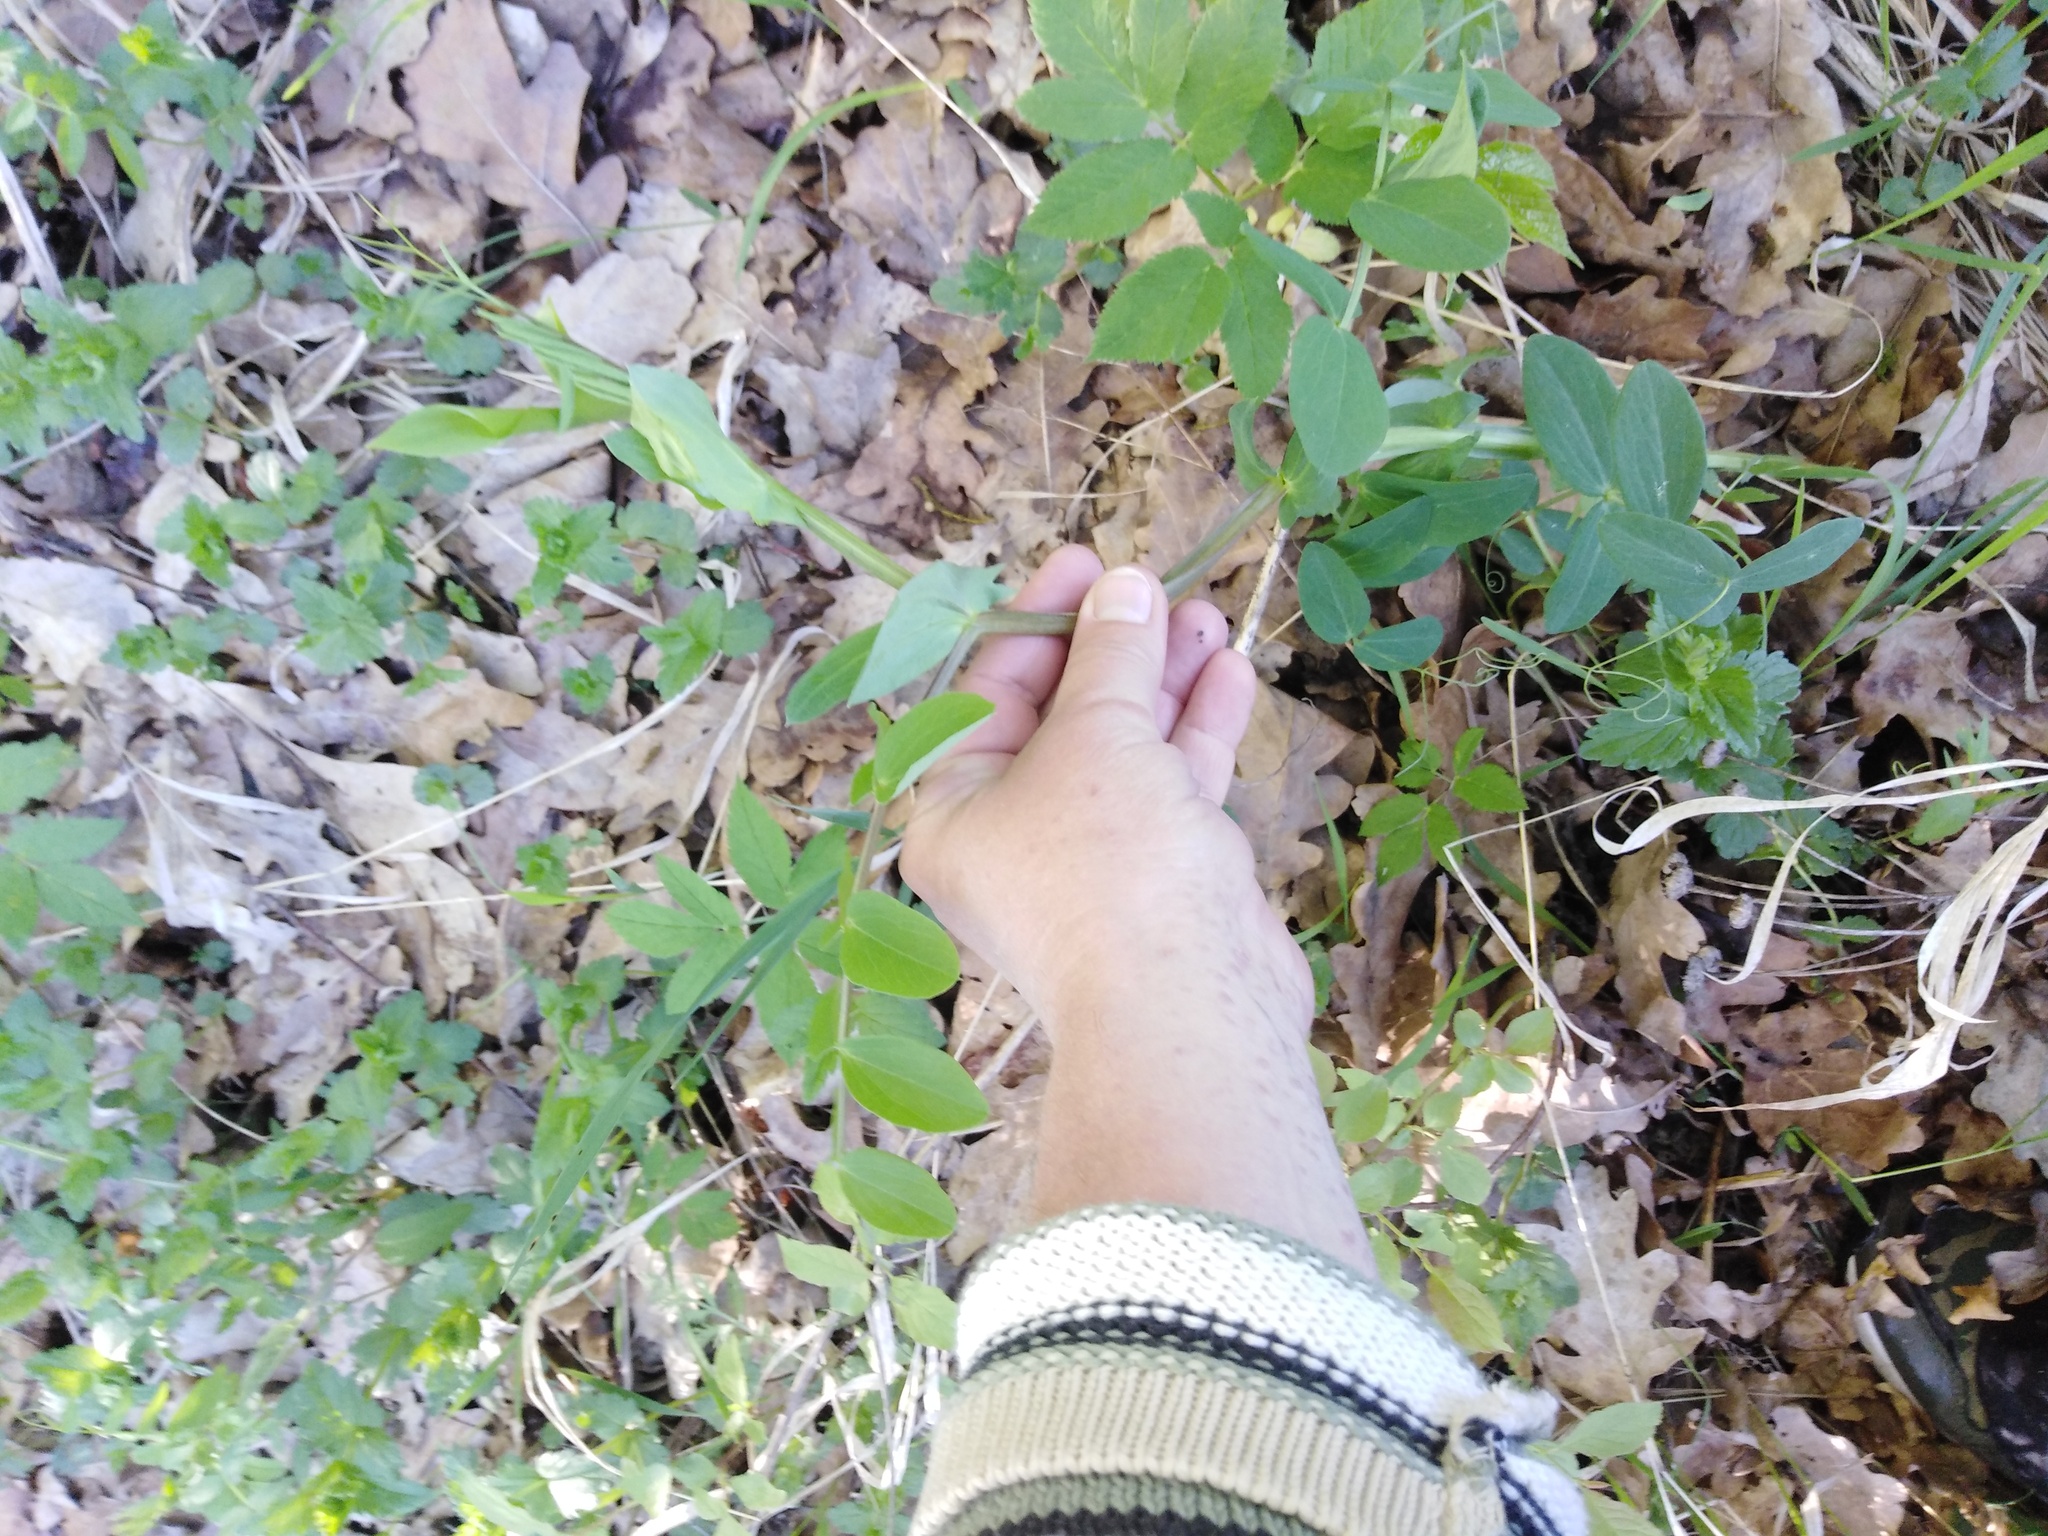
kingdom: Plantae
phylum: Tracheophyta
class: Magnoliopsida
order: Fabales
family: Fabaceae
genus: Lathyrus
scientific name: Lathyrus pisiformis
